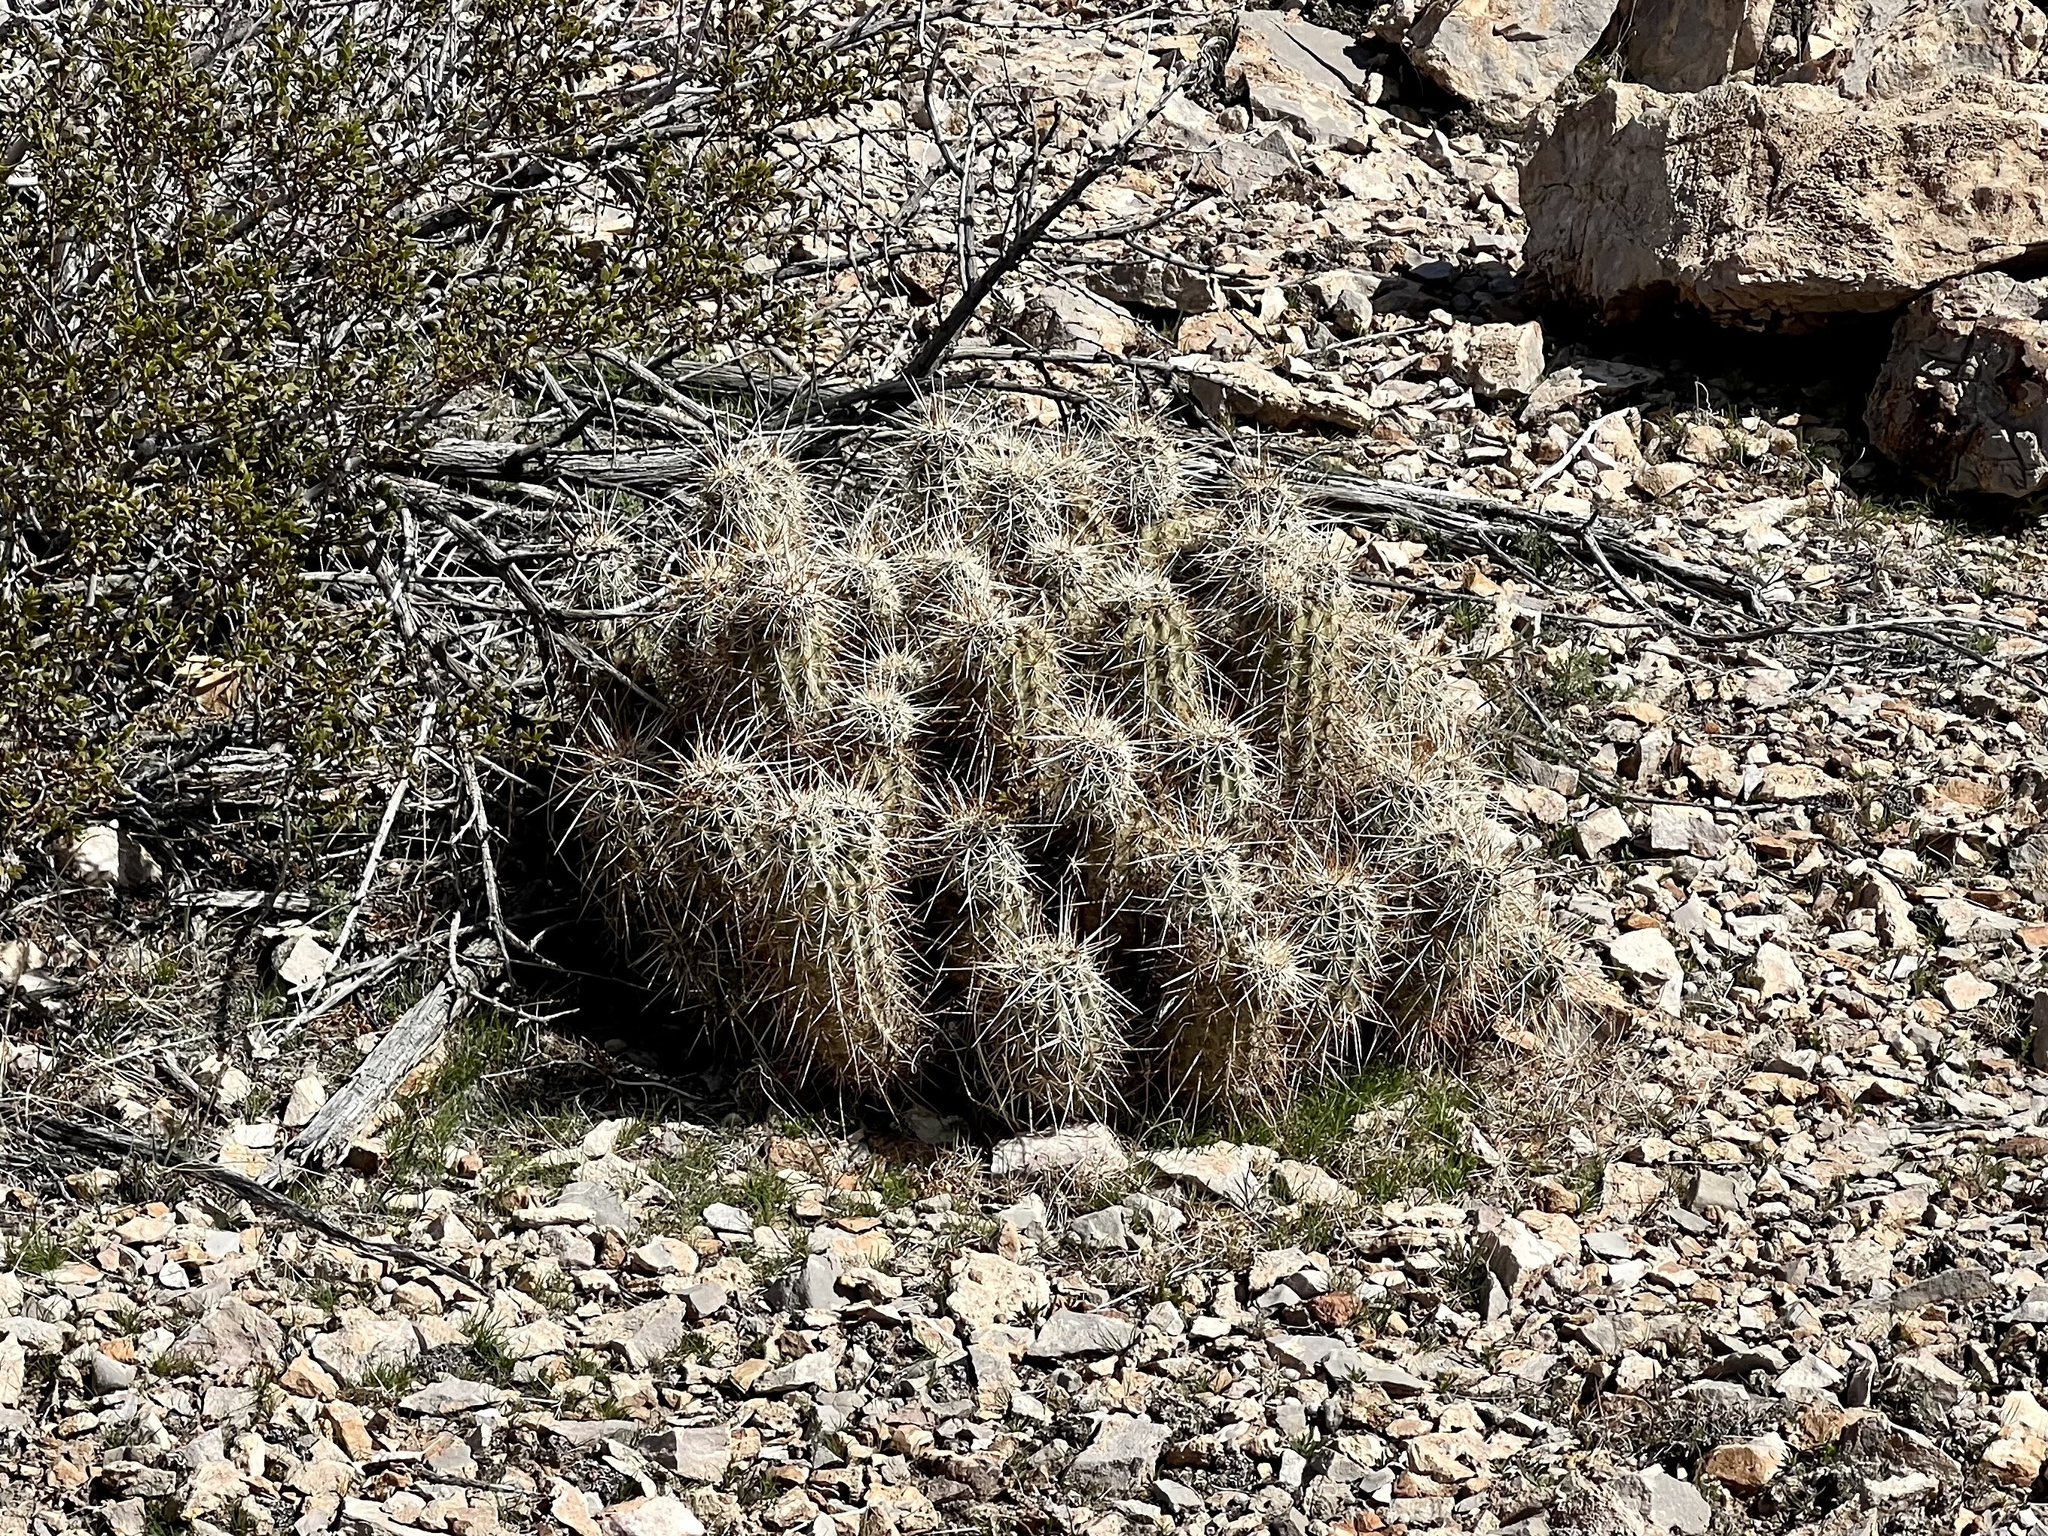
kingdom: Plantae
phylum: Tracheophyta
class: Magnoliopsida
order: Caryophyllales
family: Cactaceae
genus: Echinocereus
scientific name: Echinocereus engelmannii
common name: Engelmann's hedgehog cactus
